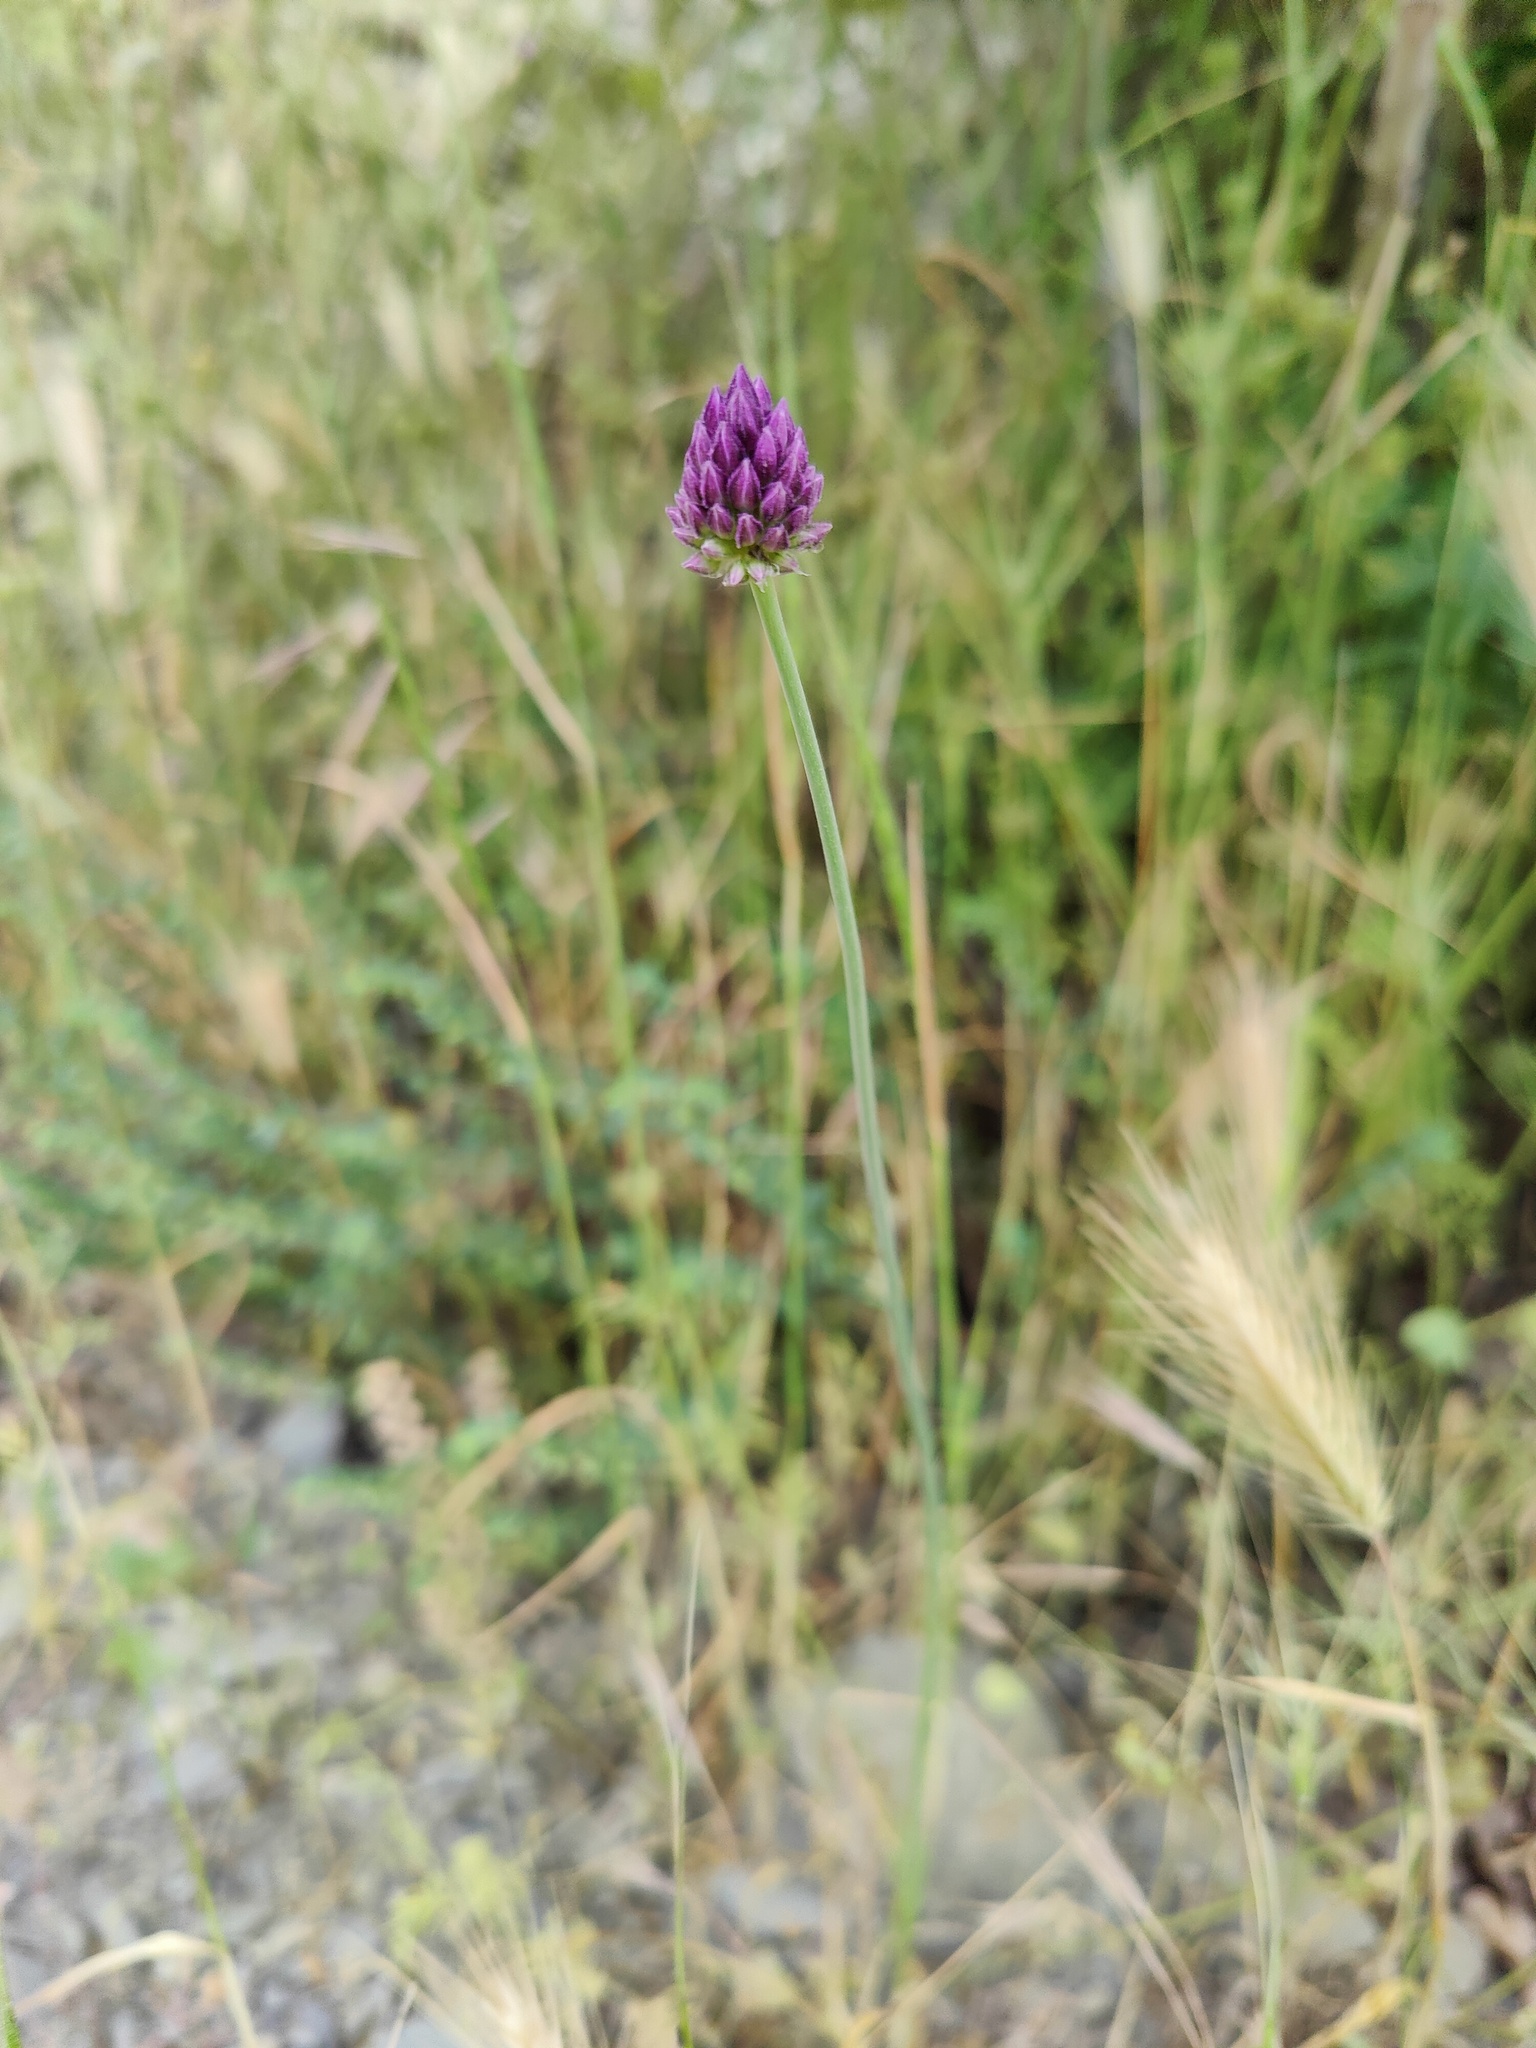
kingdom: Plantae
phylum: Tracheophyta
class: Liliopsida
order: Asparagales
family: Amaryllidaceae
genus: Allium
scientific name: Allium rotundum
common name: Sand leek
